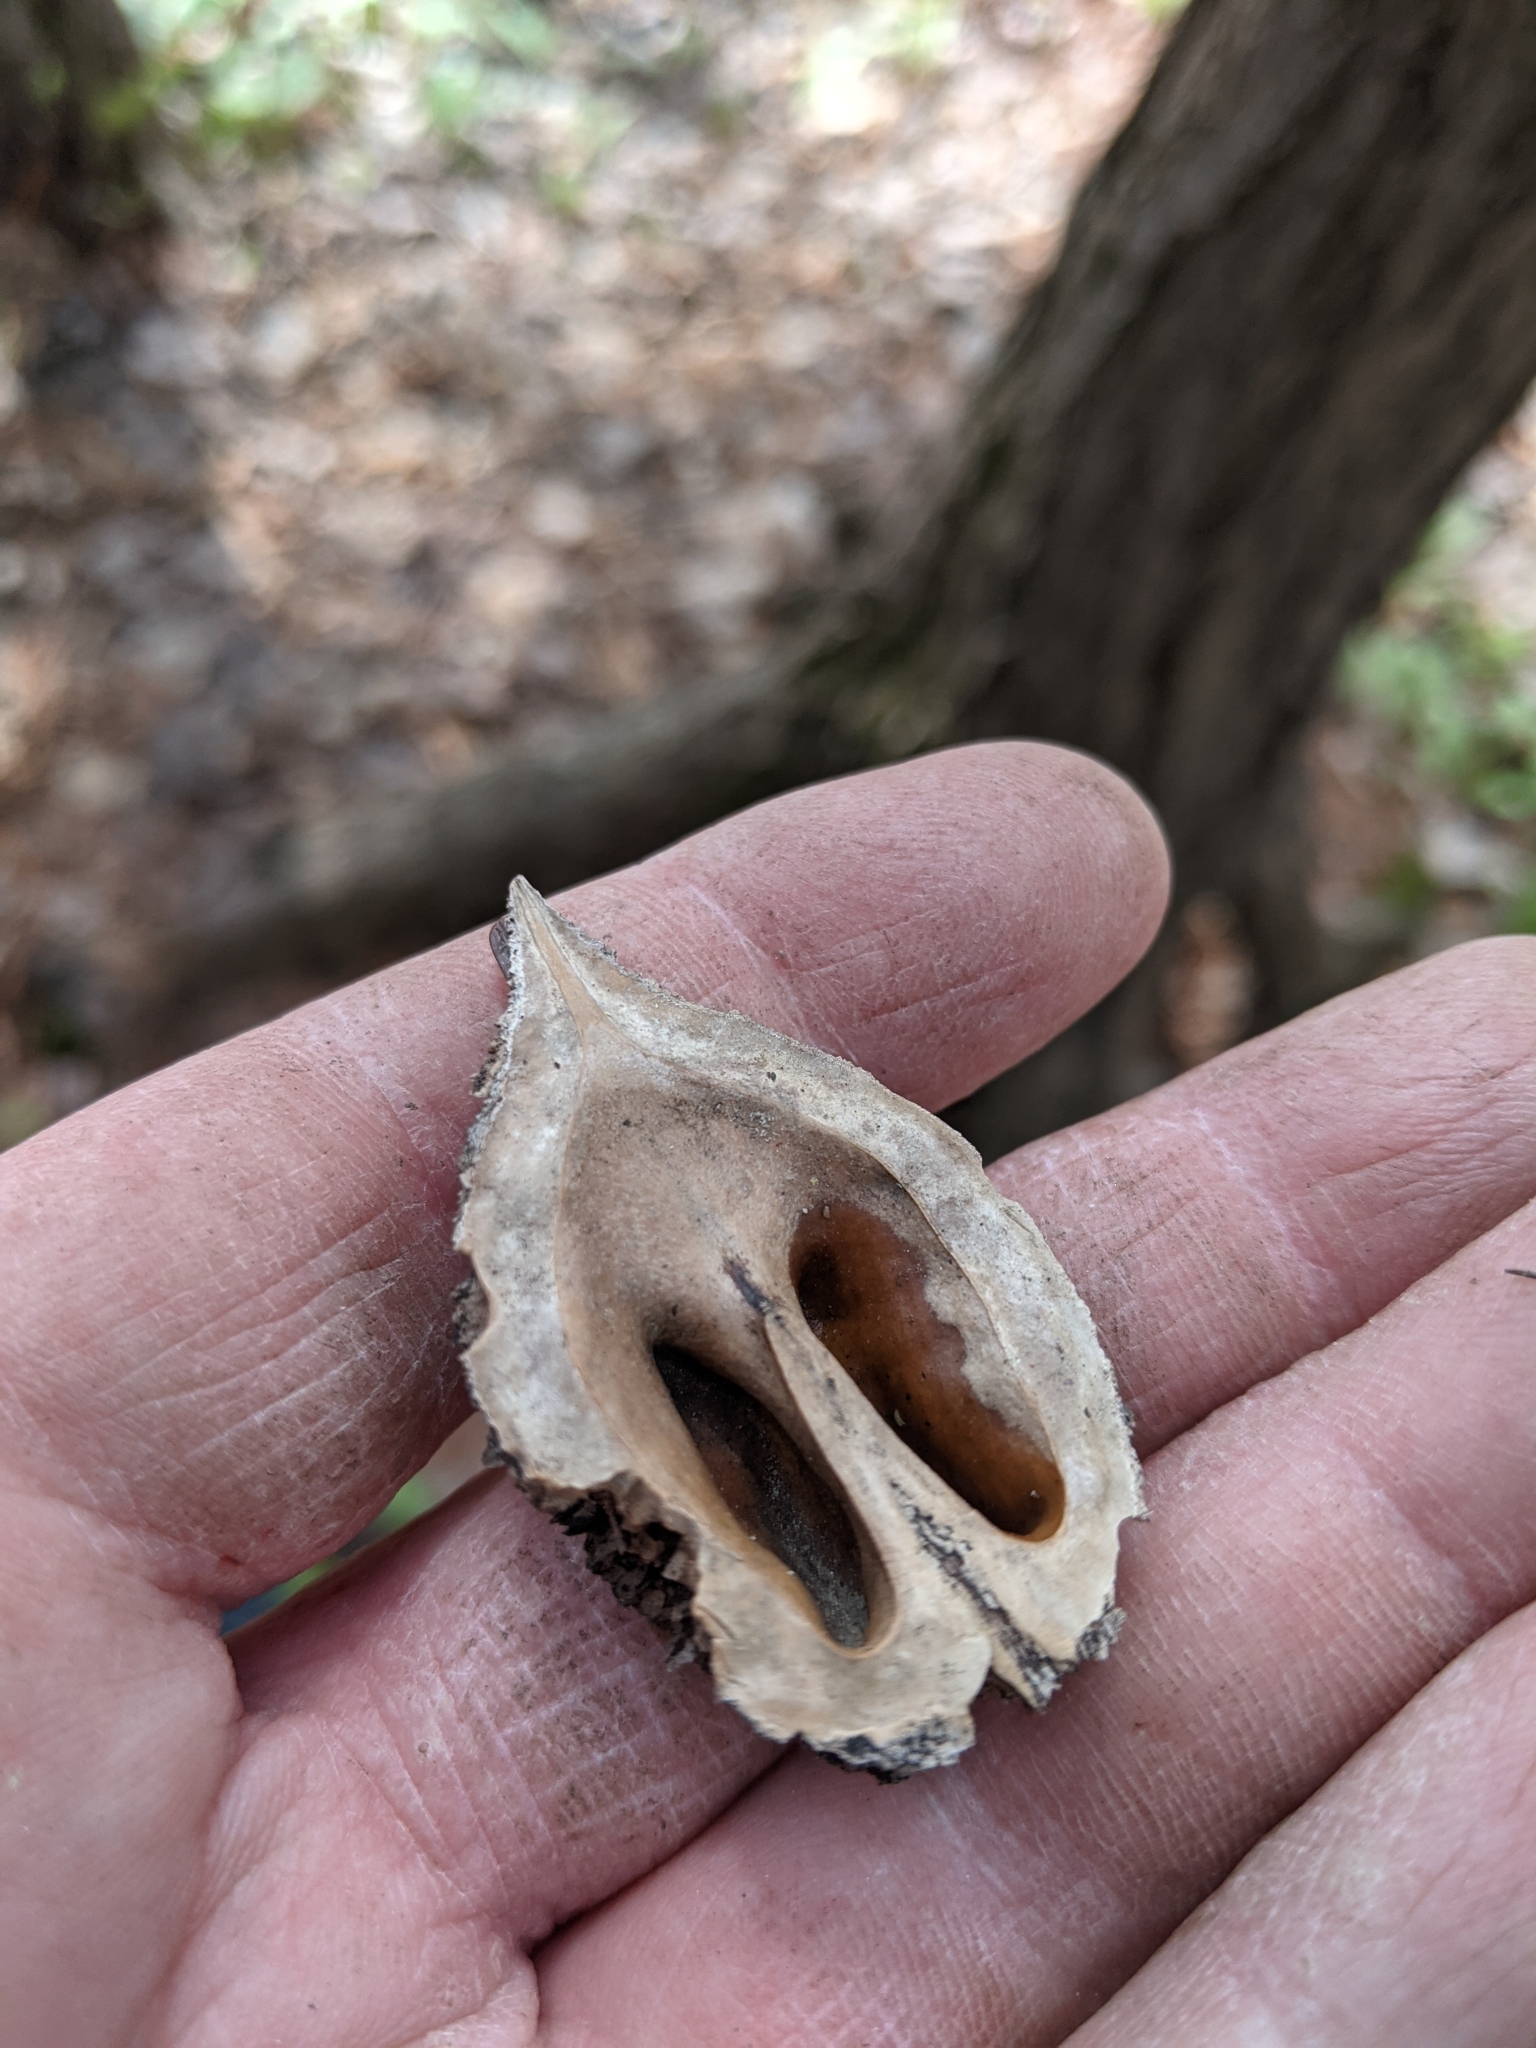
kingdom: Plantae
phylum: Tracheophyta
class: Magnoliopsida
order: Fagales
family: Juglandaceae
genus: Juglans
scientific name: Juglans cinerea
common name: Butternut
